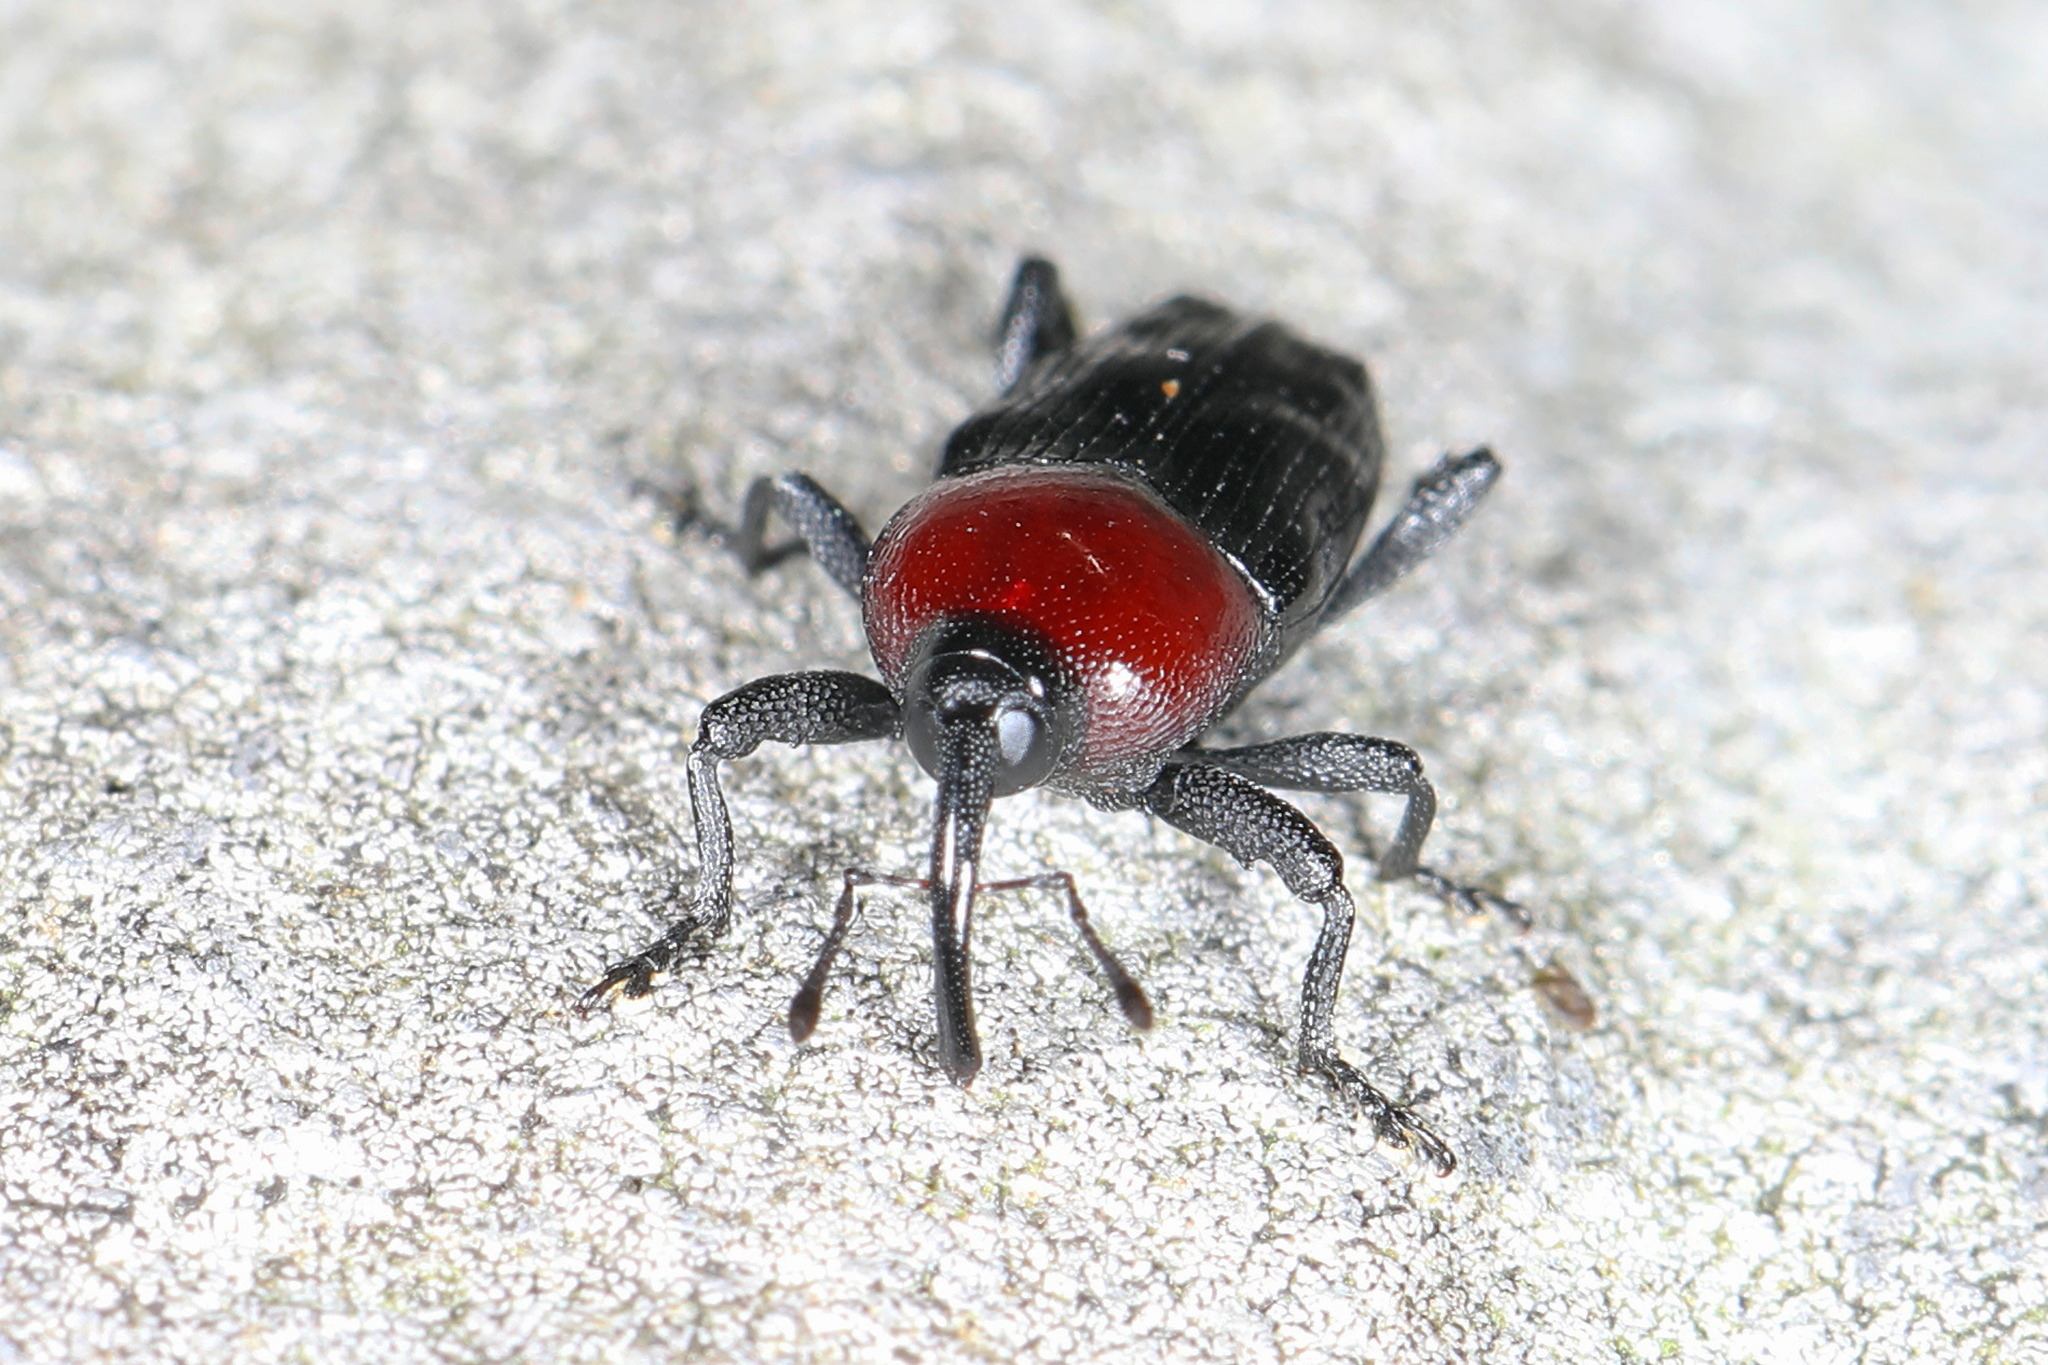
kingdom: Animalia
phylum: Arthropoda
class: Insecta
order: Coleoptera
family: Curculionidae
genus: Madarellus
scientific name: Madarellus undulatus
